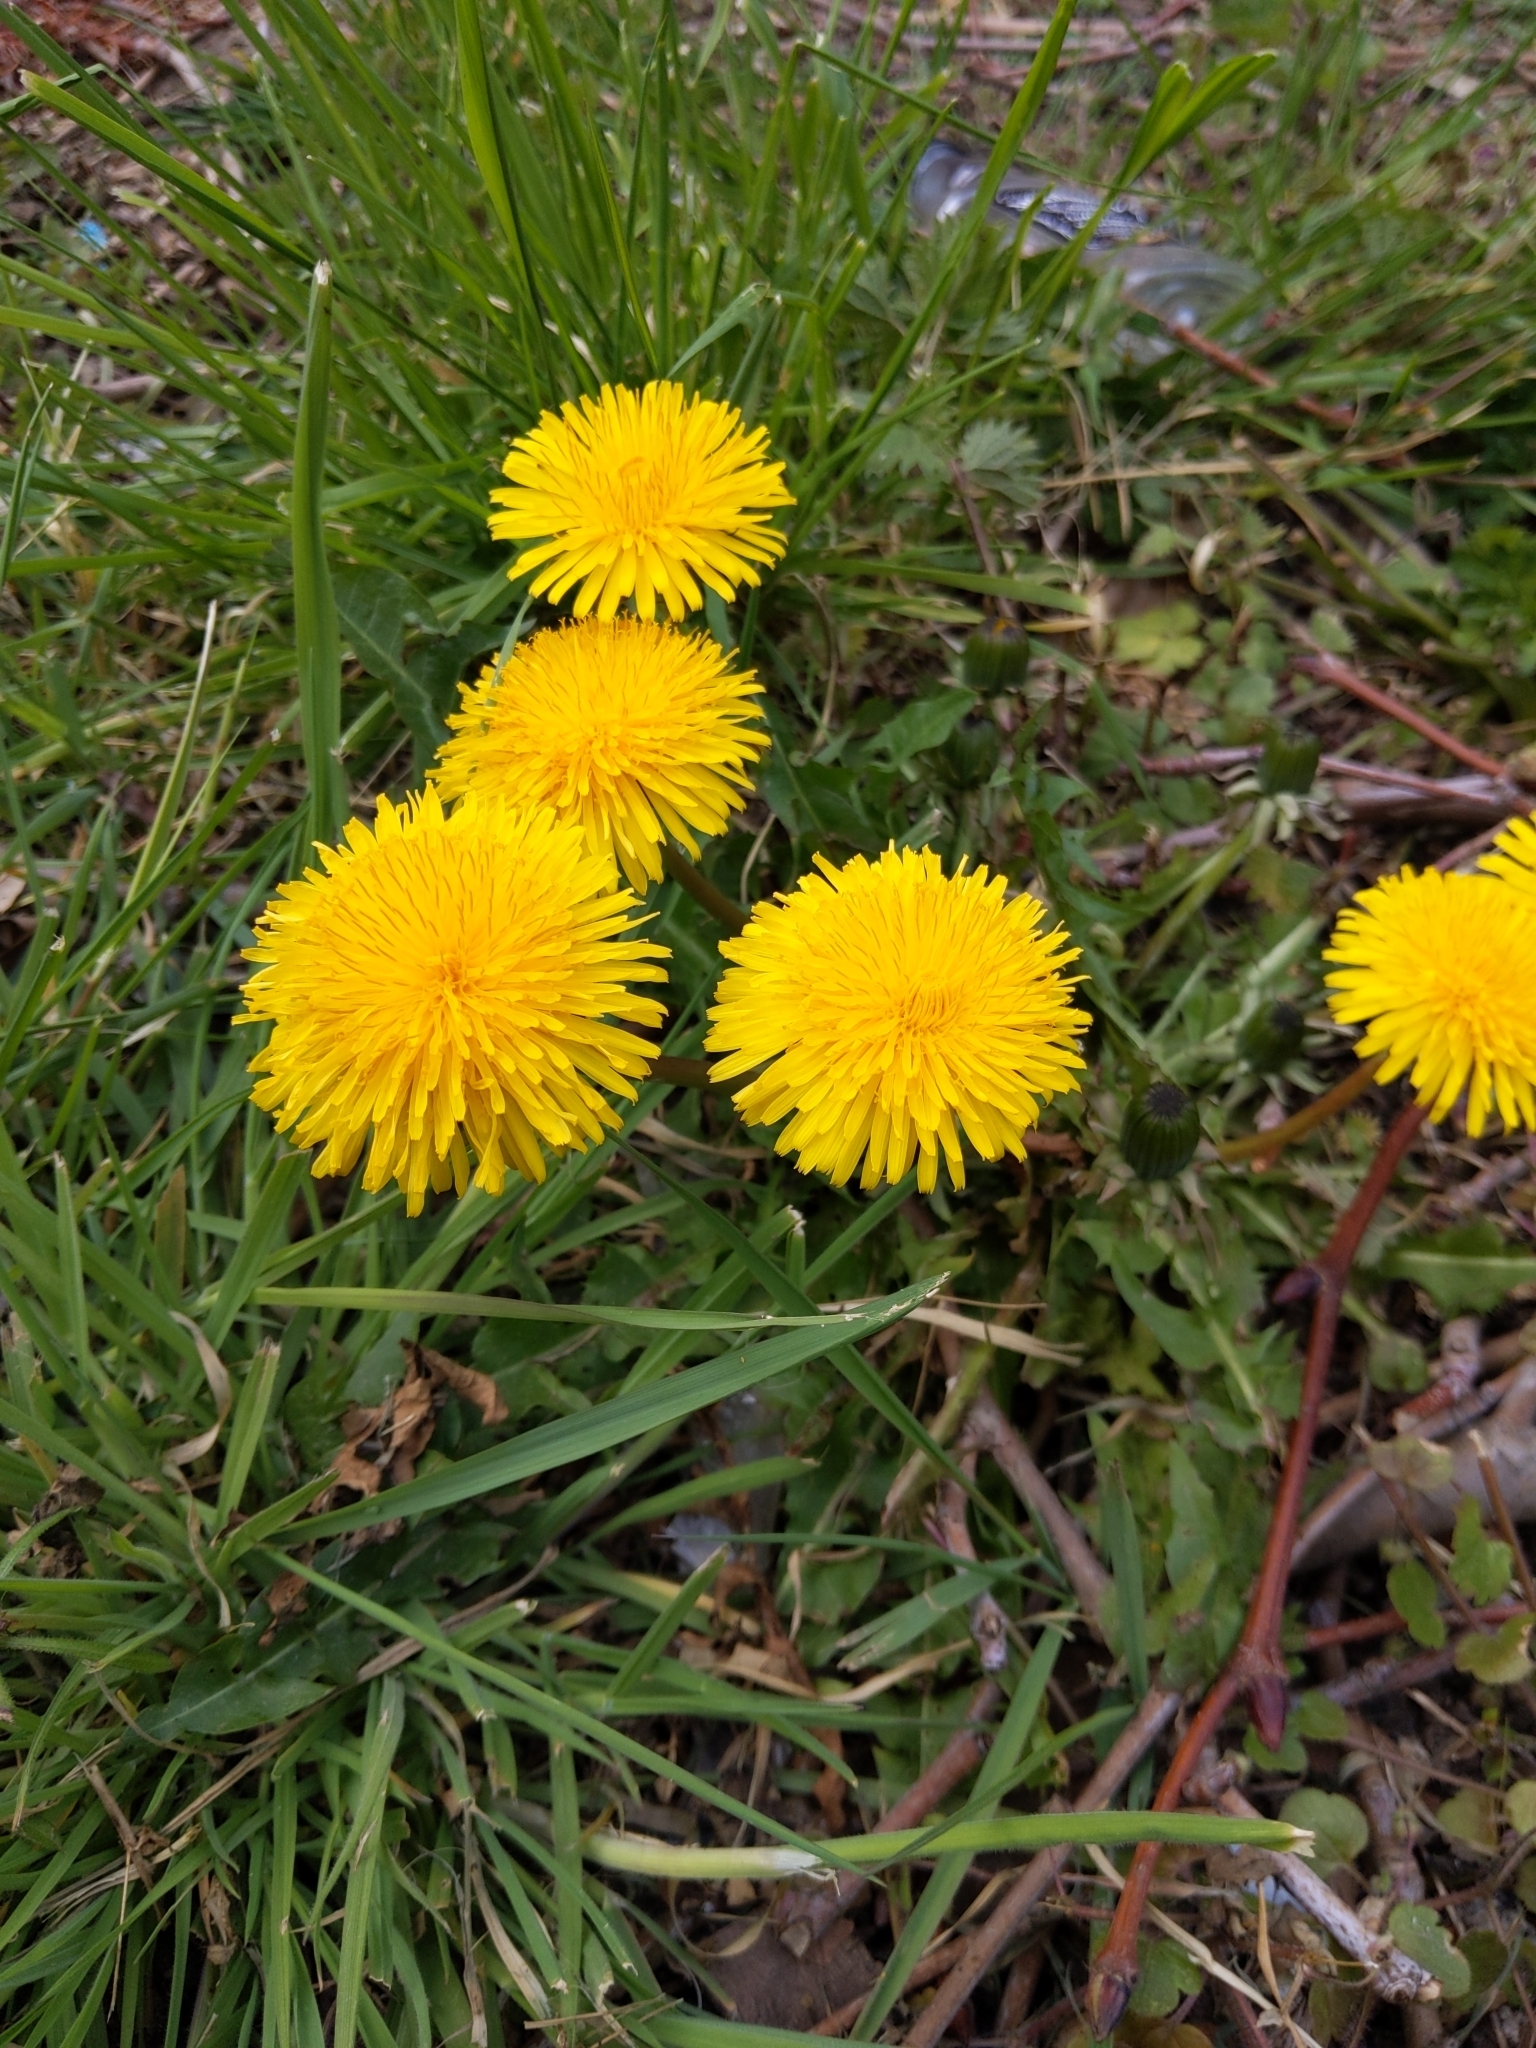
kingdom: Plantae
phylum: Tracheophyta
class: Magnoliopsida
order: Asterales
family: Asteraceae
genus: Taraxacum
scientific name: Taraxacum officinale
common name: Common dandelion
